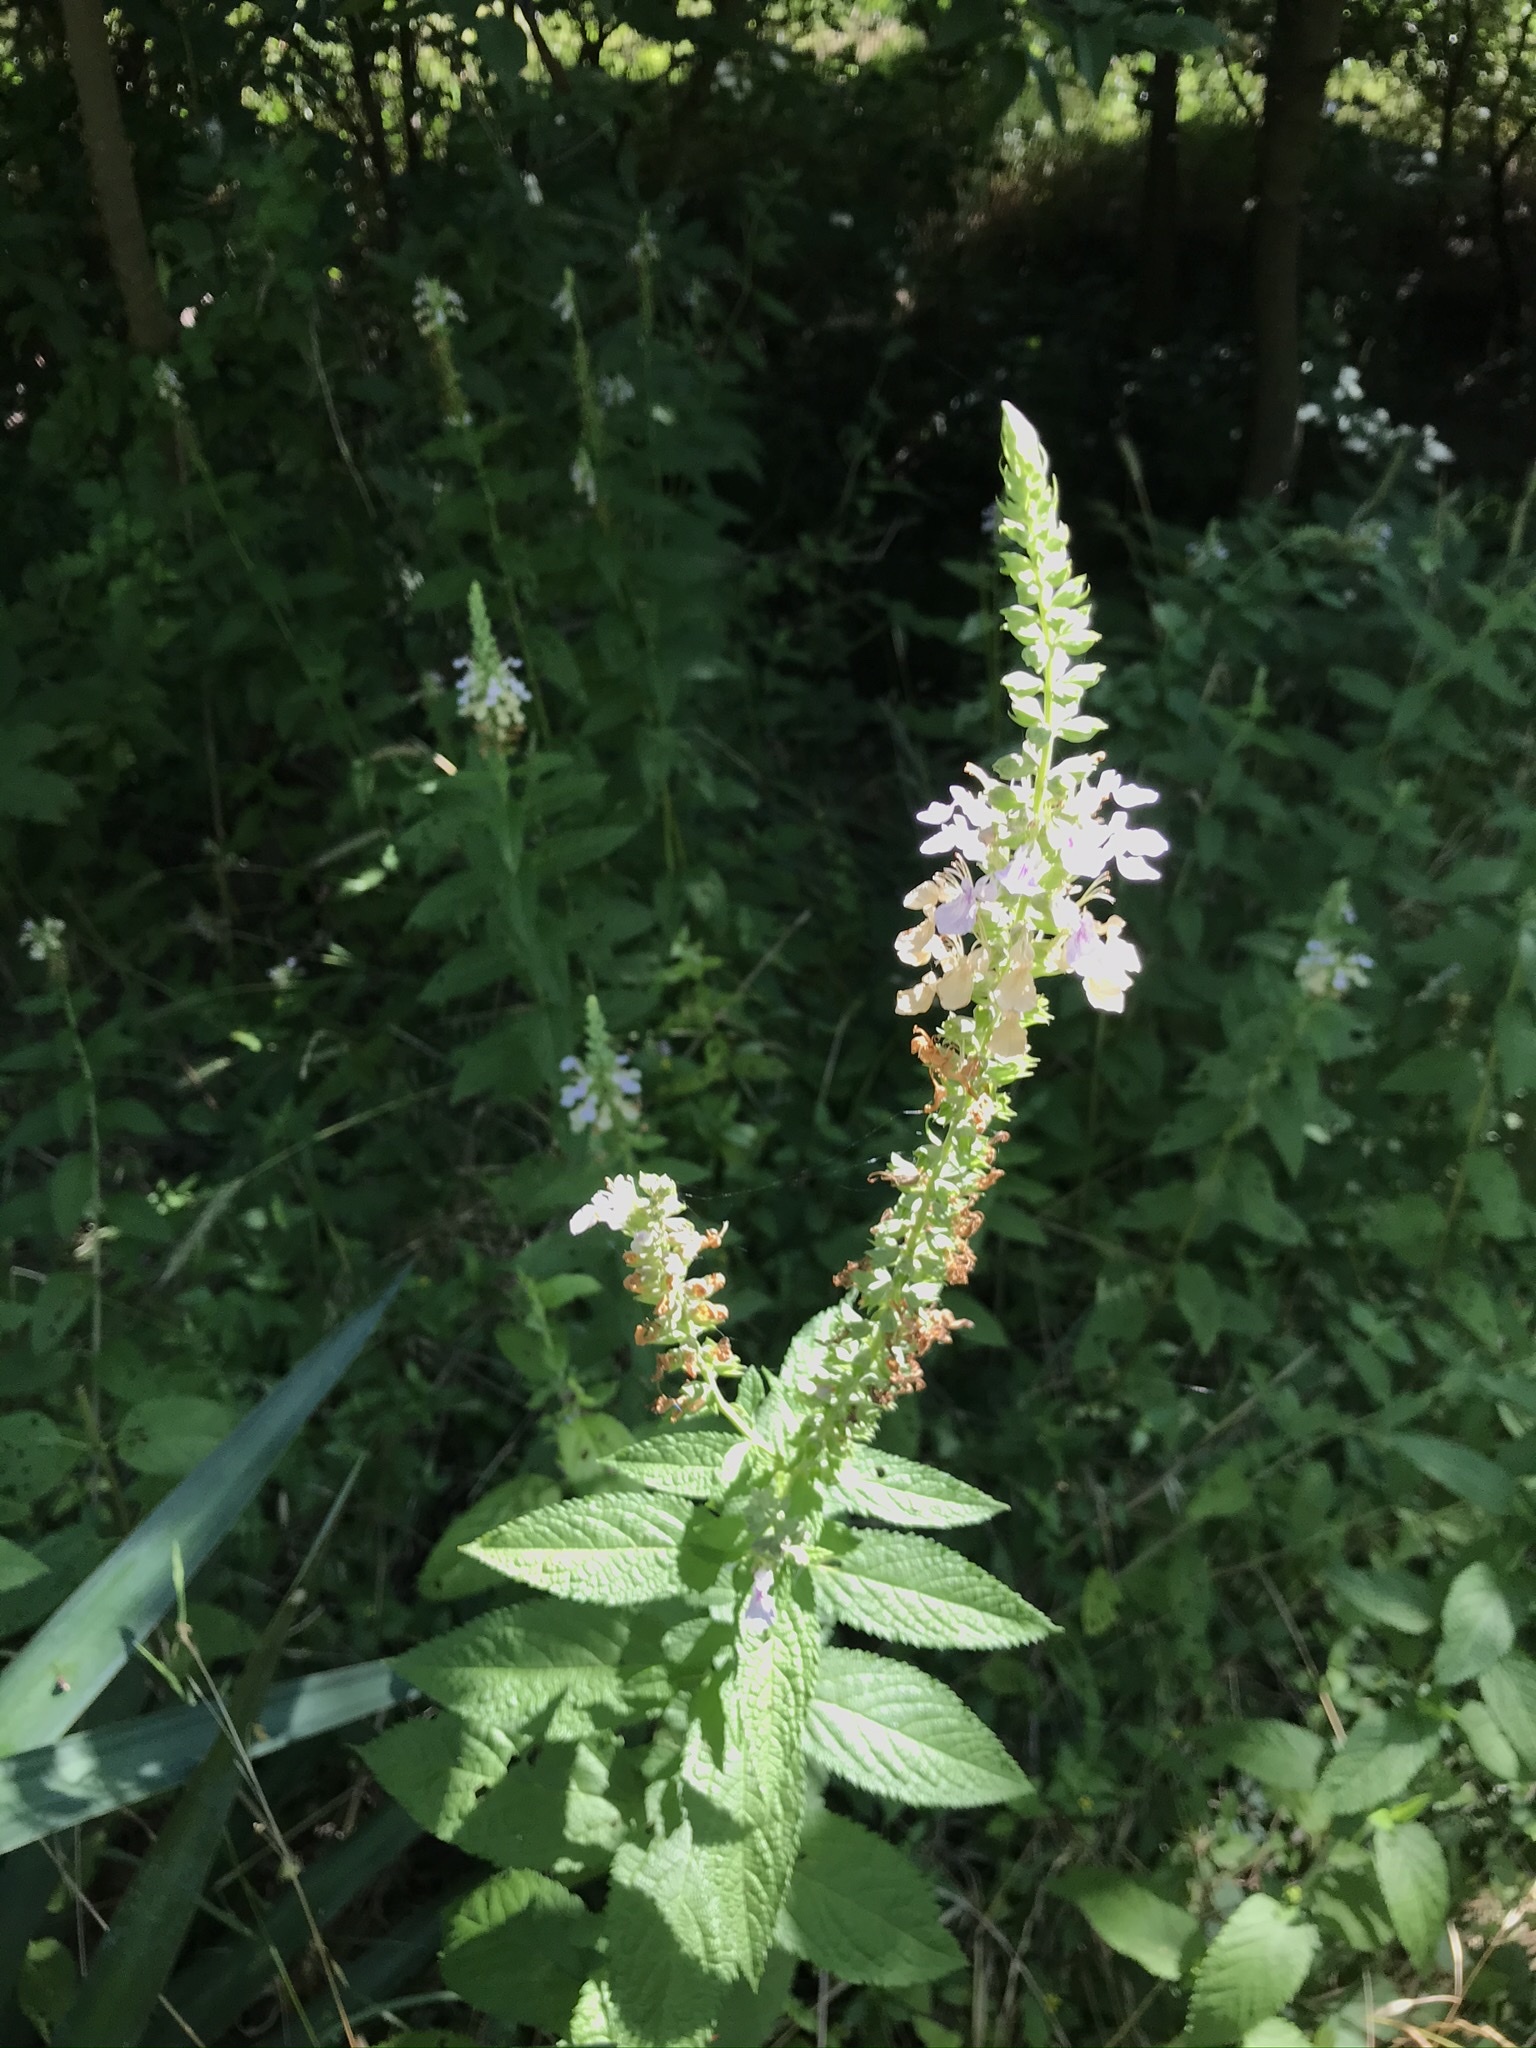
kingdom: Plantae
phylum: Tracheophyta
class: Magnoliopsida
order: Lamiales
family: Lamiaceae
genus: Teucrium
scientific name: Teucrium canadense
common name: American germander
